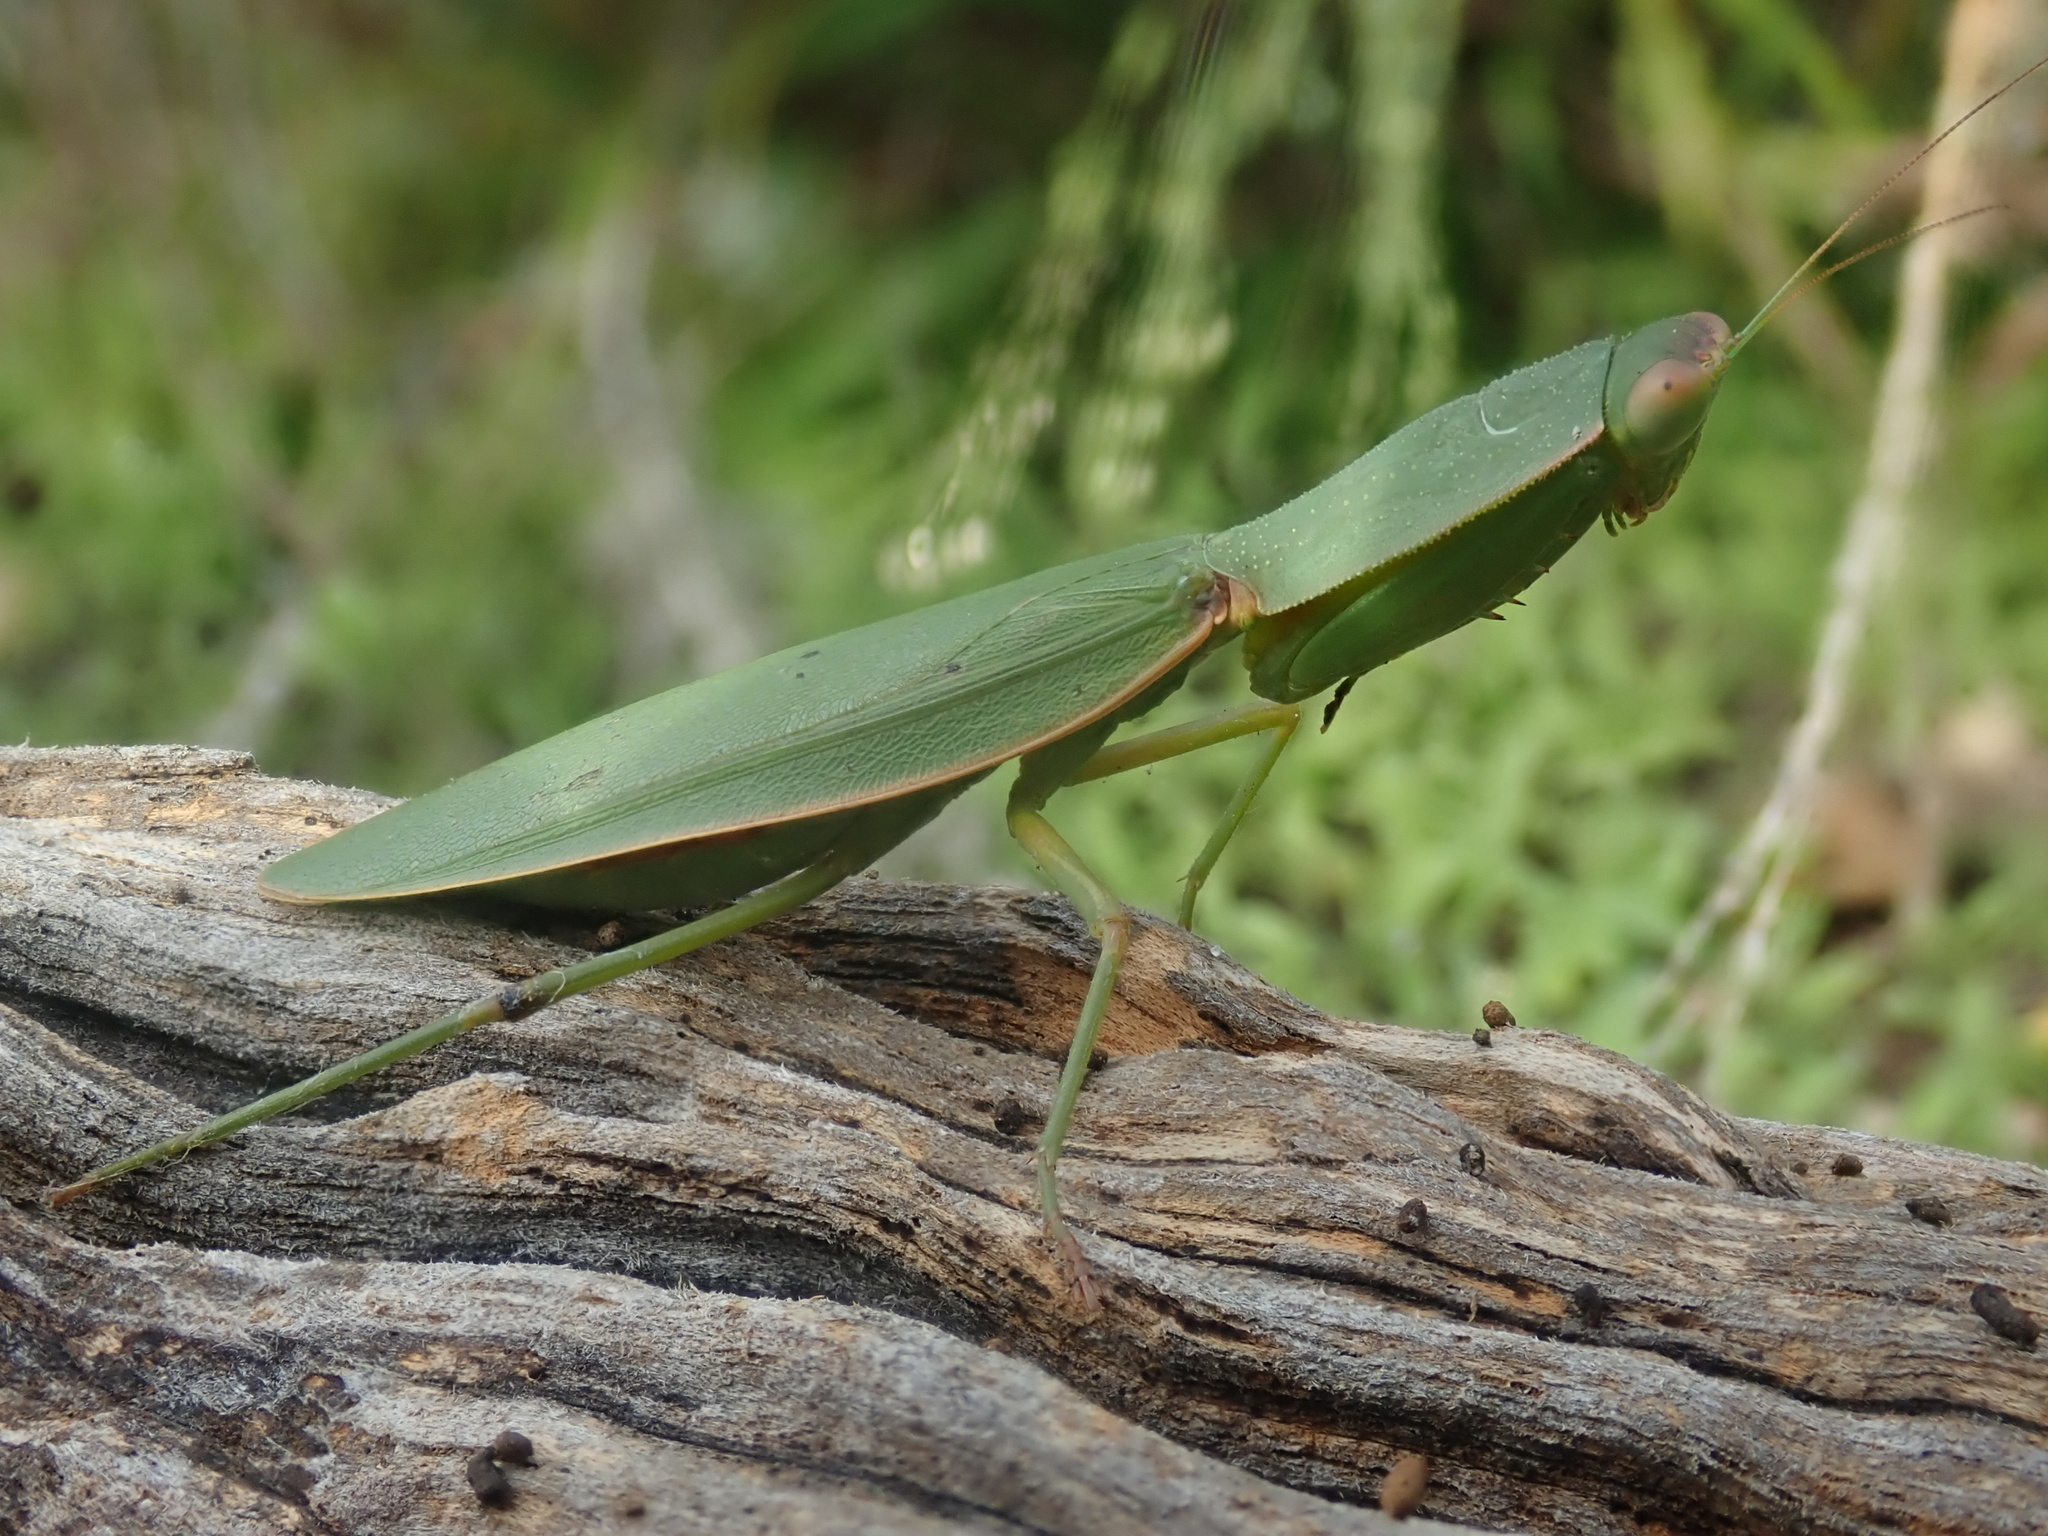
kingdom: Animalia
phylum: Arthropoda
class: Insecta
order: Mantodea
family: Mantidae
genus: Orthodera
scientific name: Orthodera ministralis
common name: Mantis
